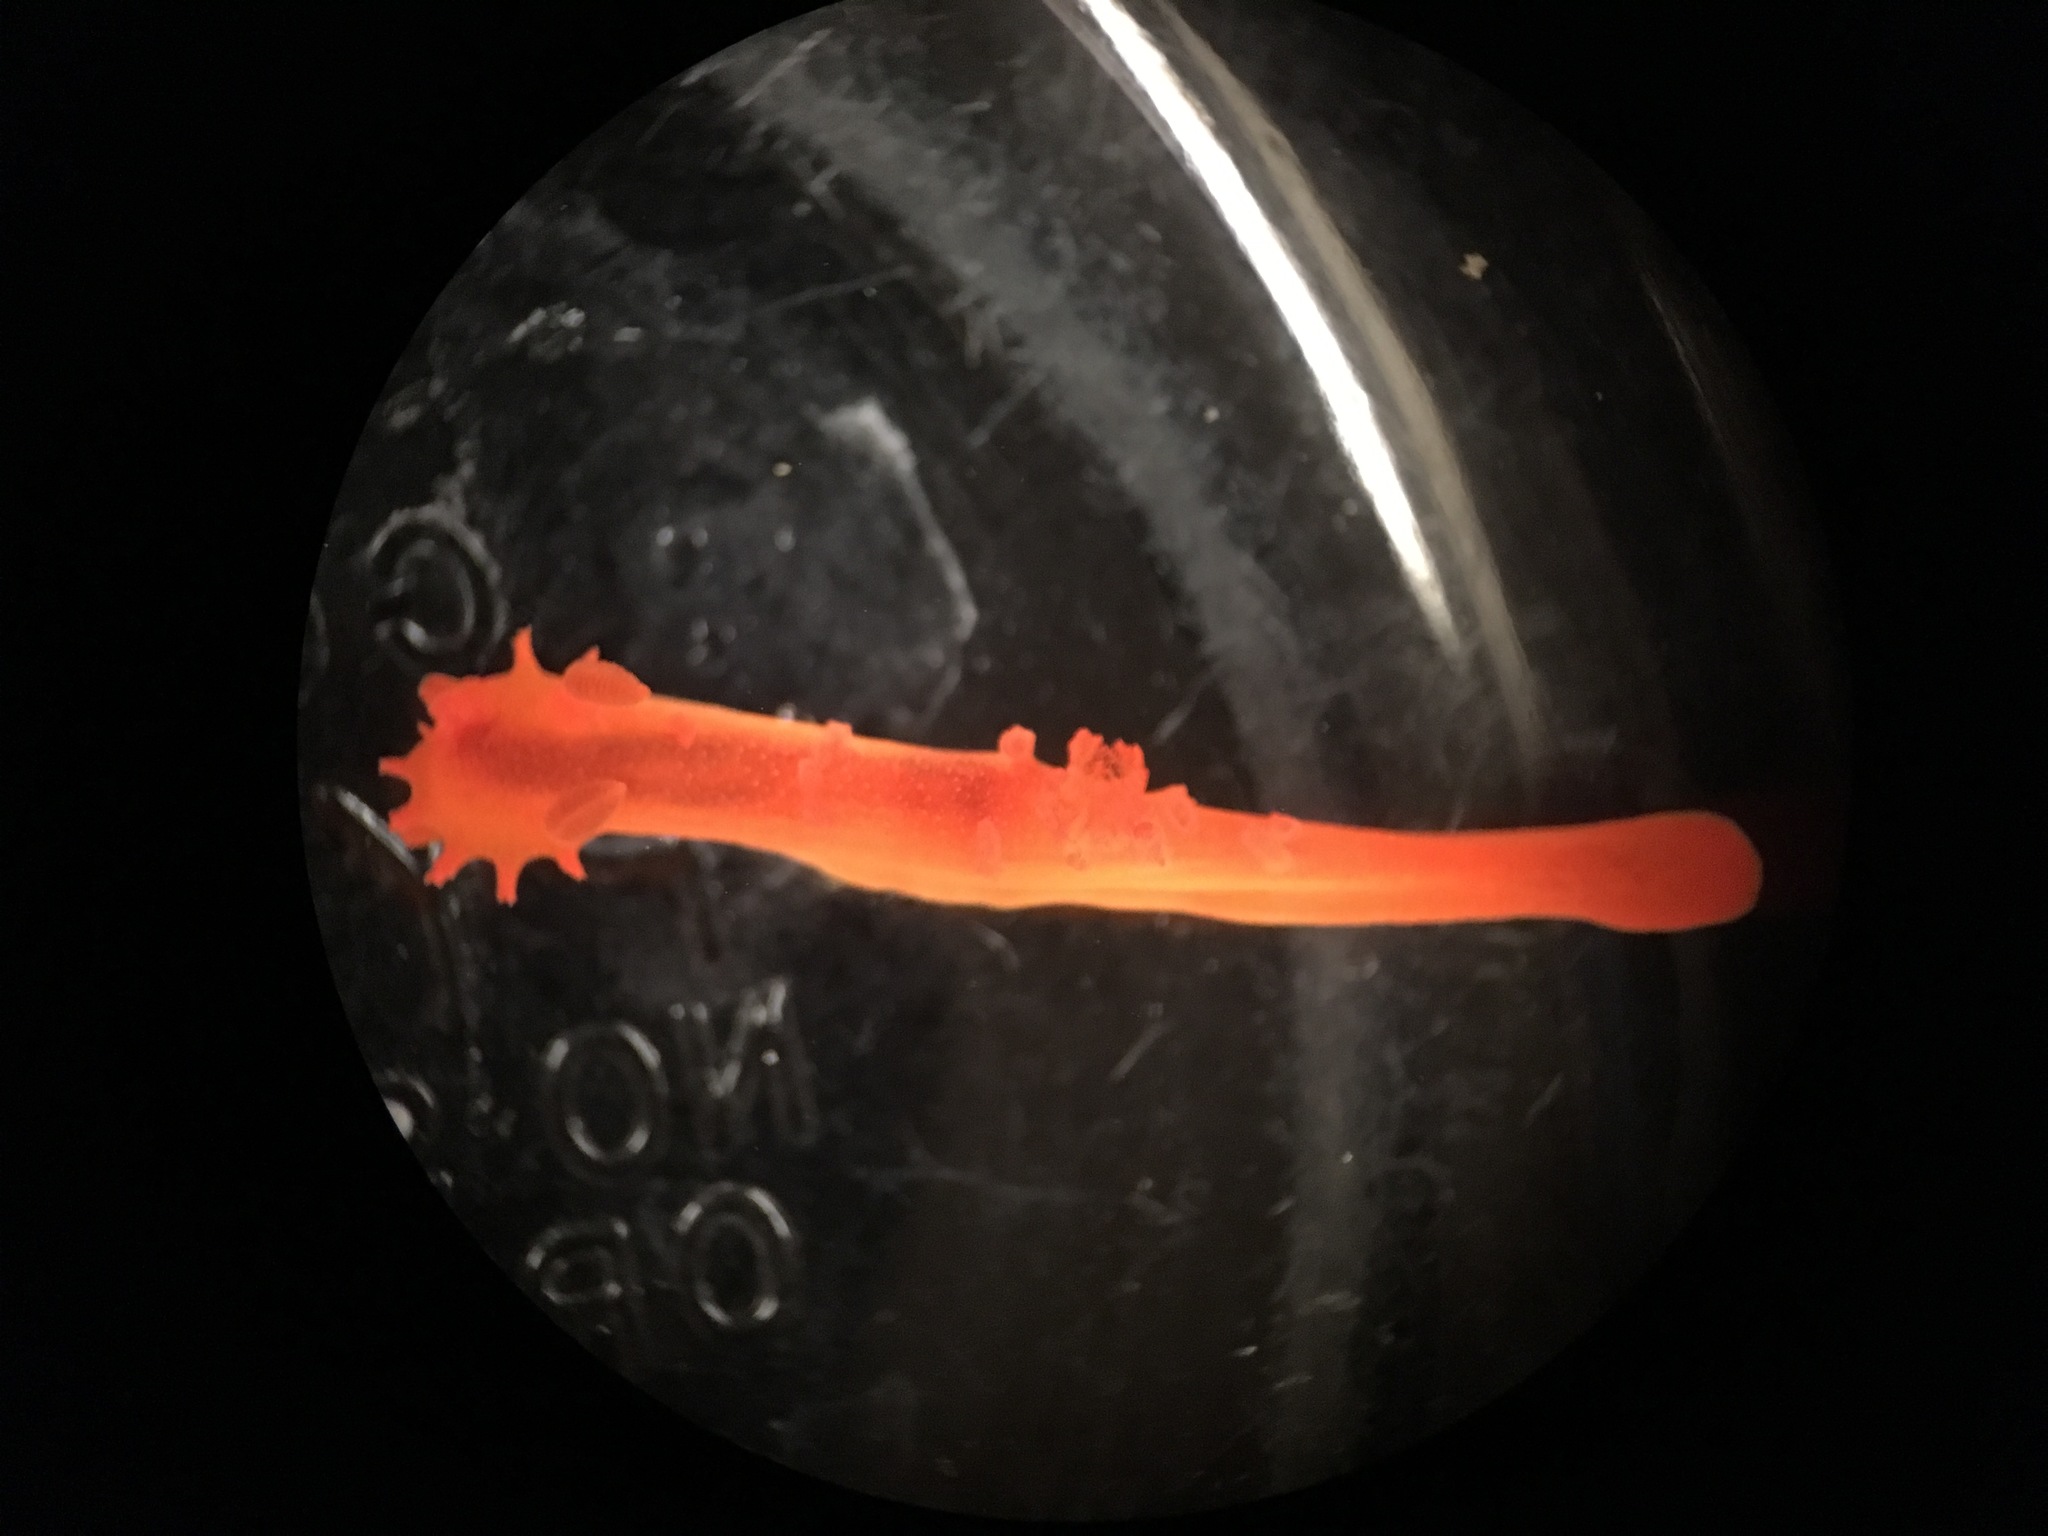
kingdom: Animalia
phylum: Mollusca
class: Gastropoda
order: Nudibranchia
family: Polyceridae
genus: Triopha
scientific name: Triopha maculata
